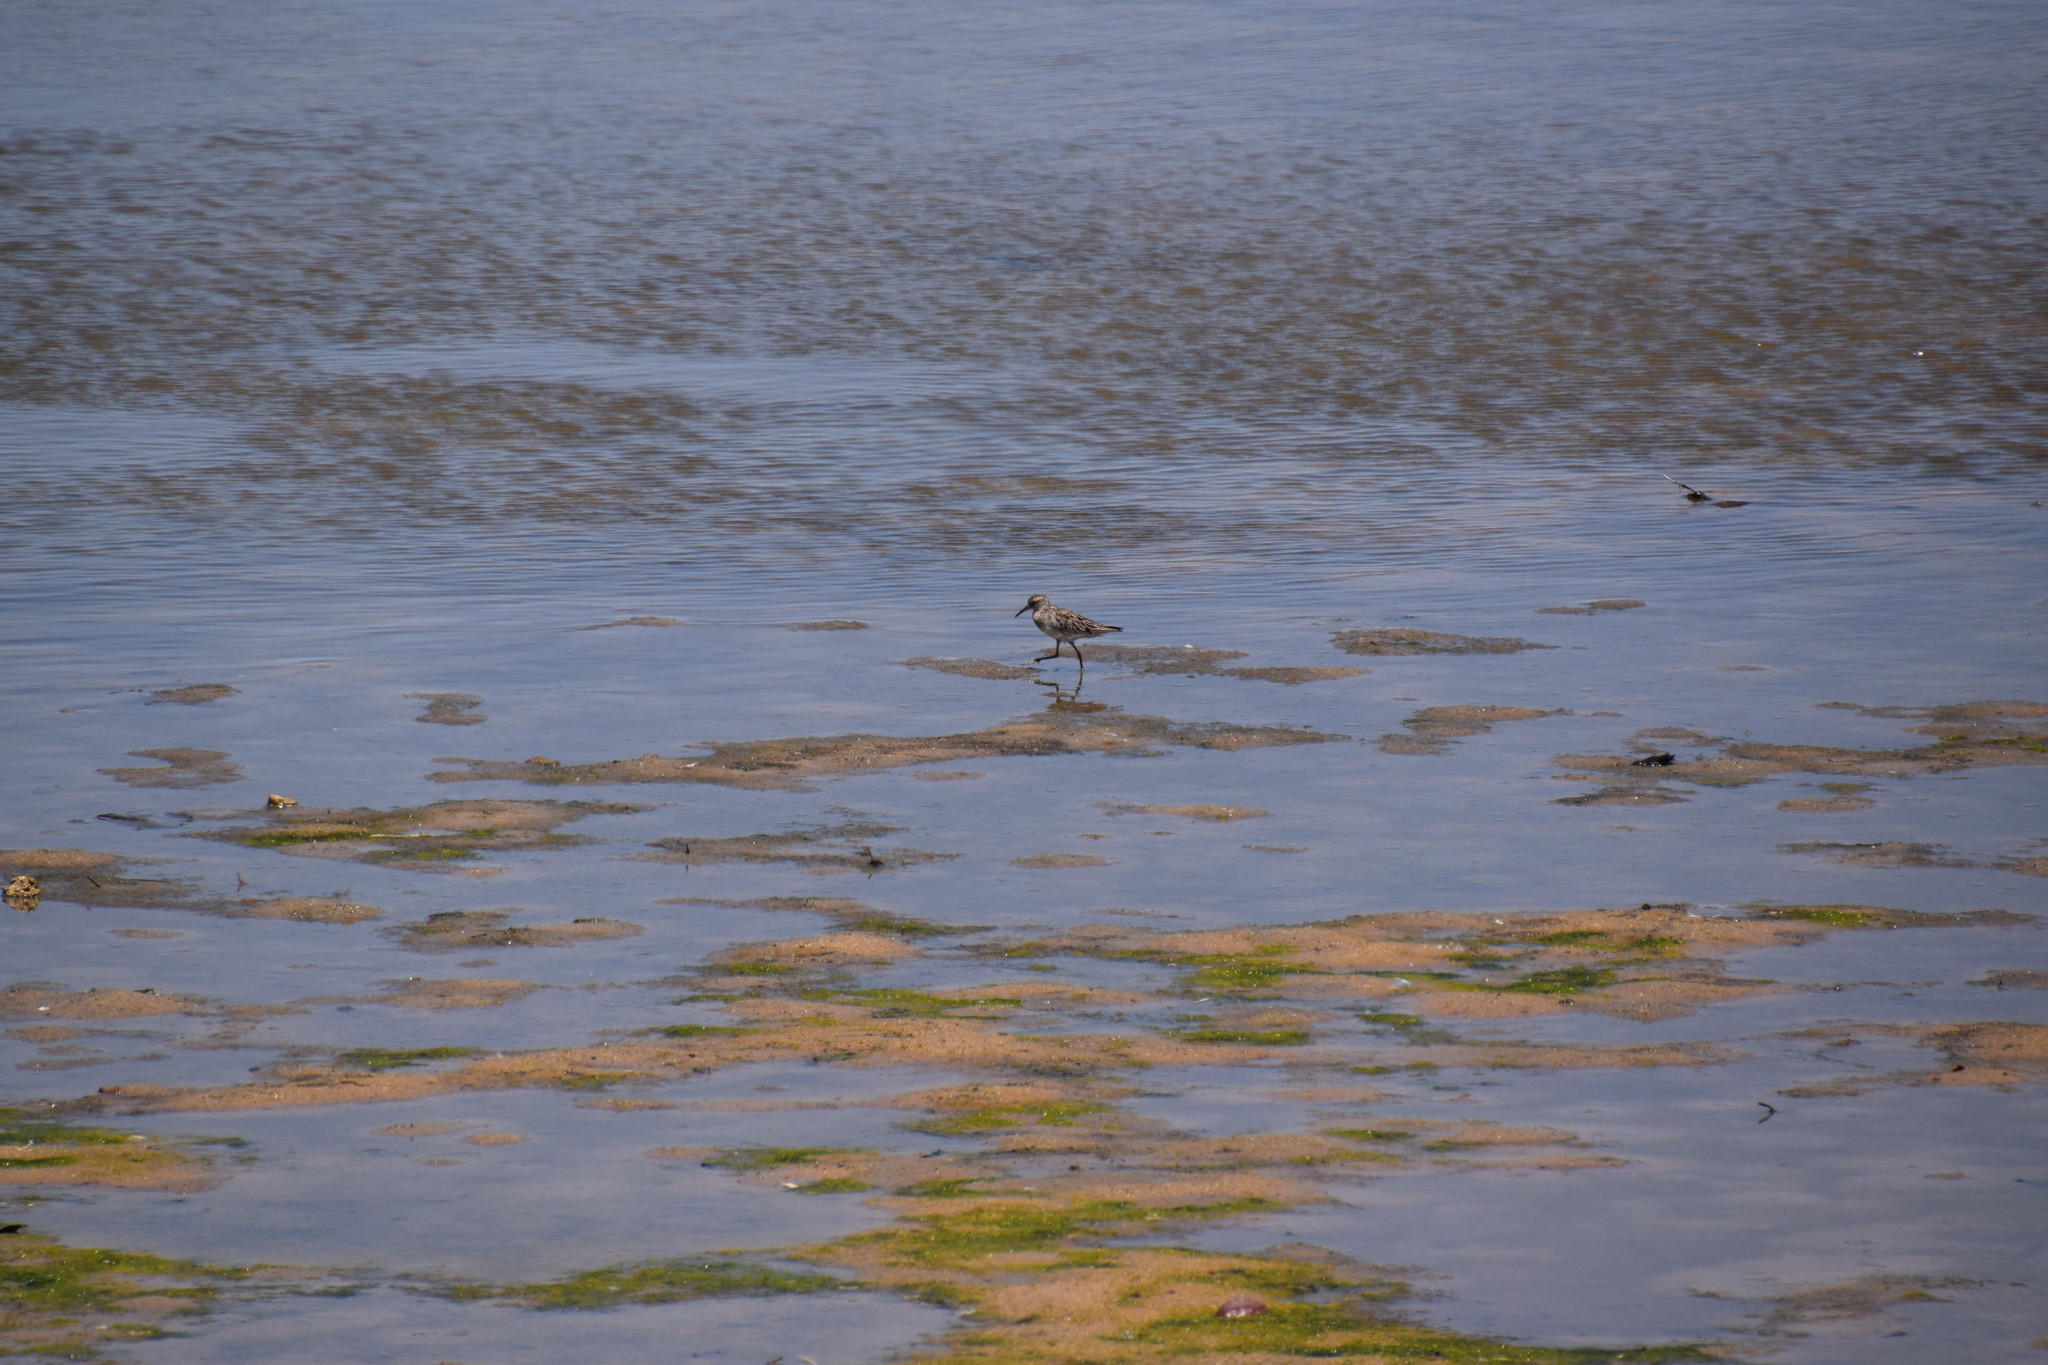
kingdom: Animalia
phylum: Chordata
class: Aves
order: Charadriiformes
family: Scolopacidae
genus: Calidris
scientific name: Calidris acuminata
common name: Sharp-tailed sandpiper
